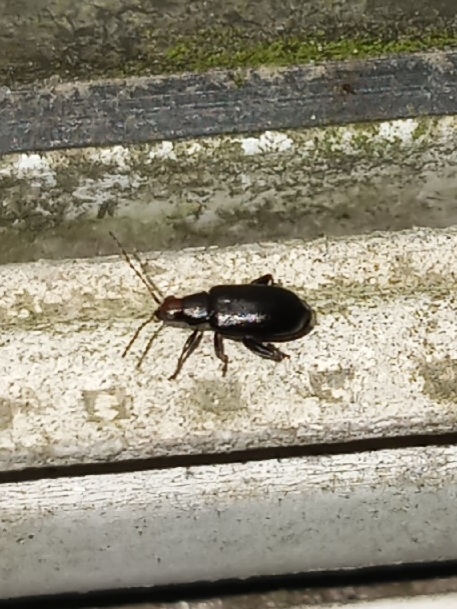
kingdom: Animalia
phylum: Arthropoda
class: Insecta
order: Coleoptera
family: Chrysomelidae
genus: Systena
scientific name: Systena frontalis
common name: Red-headed flea beetle
